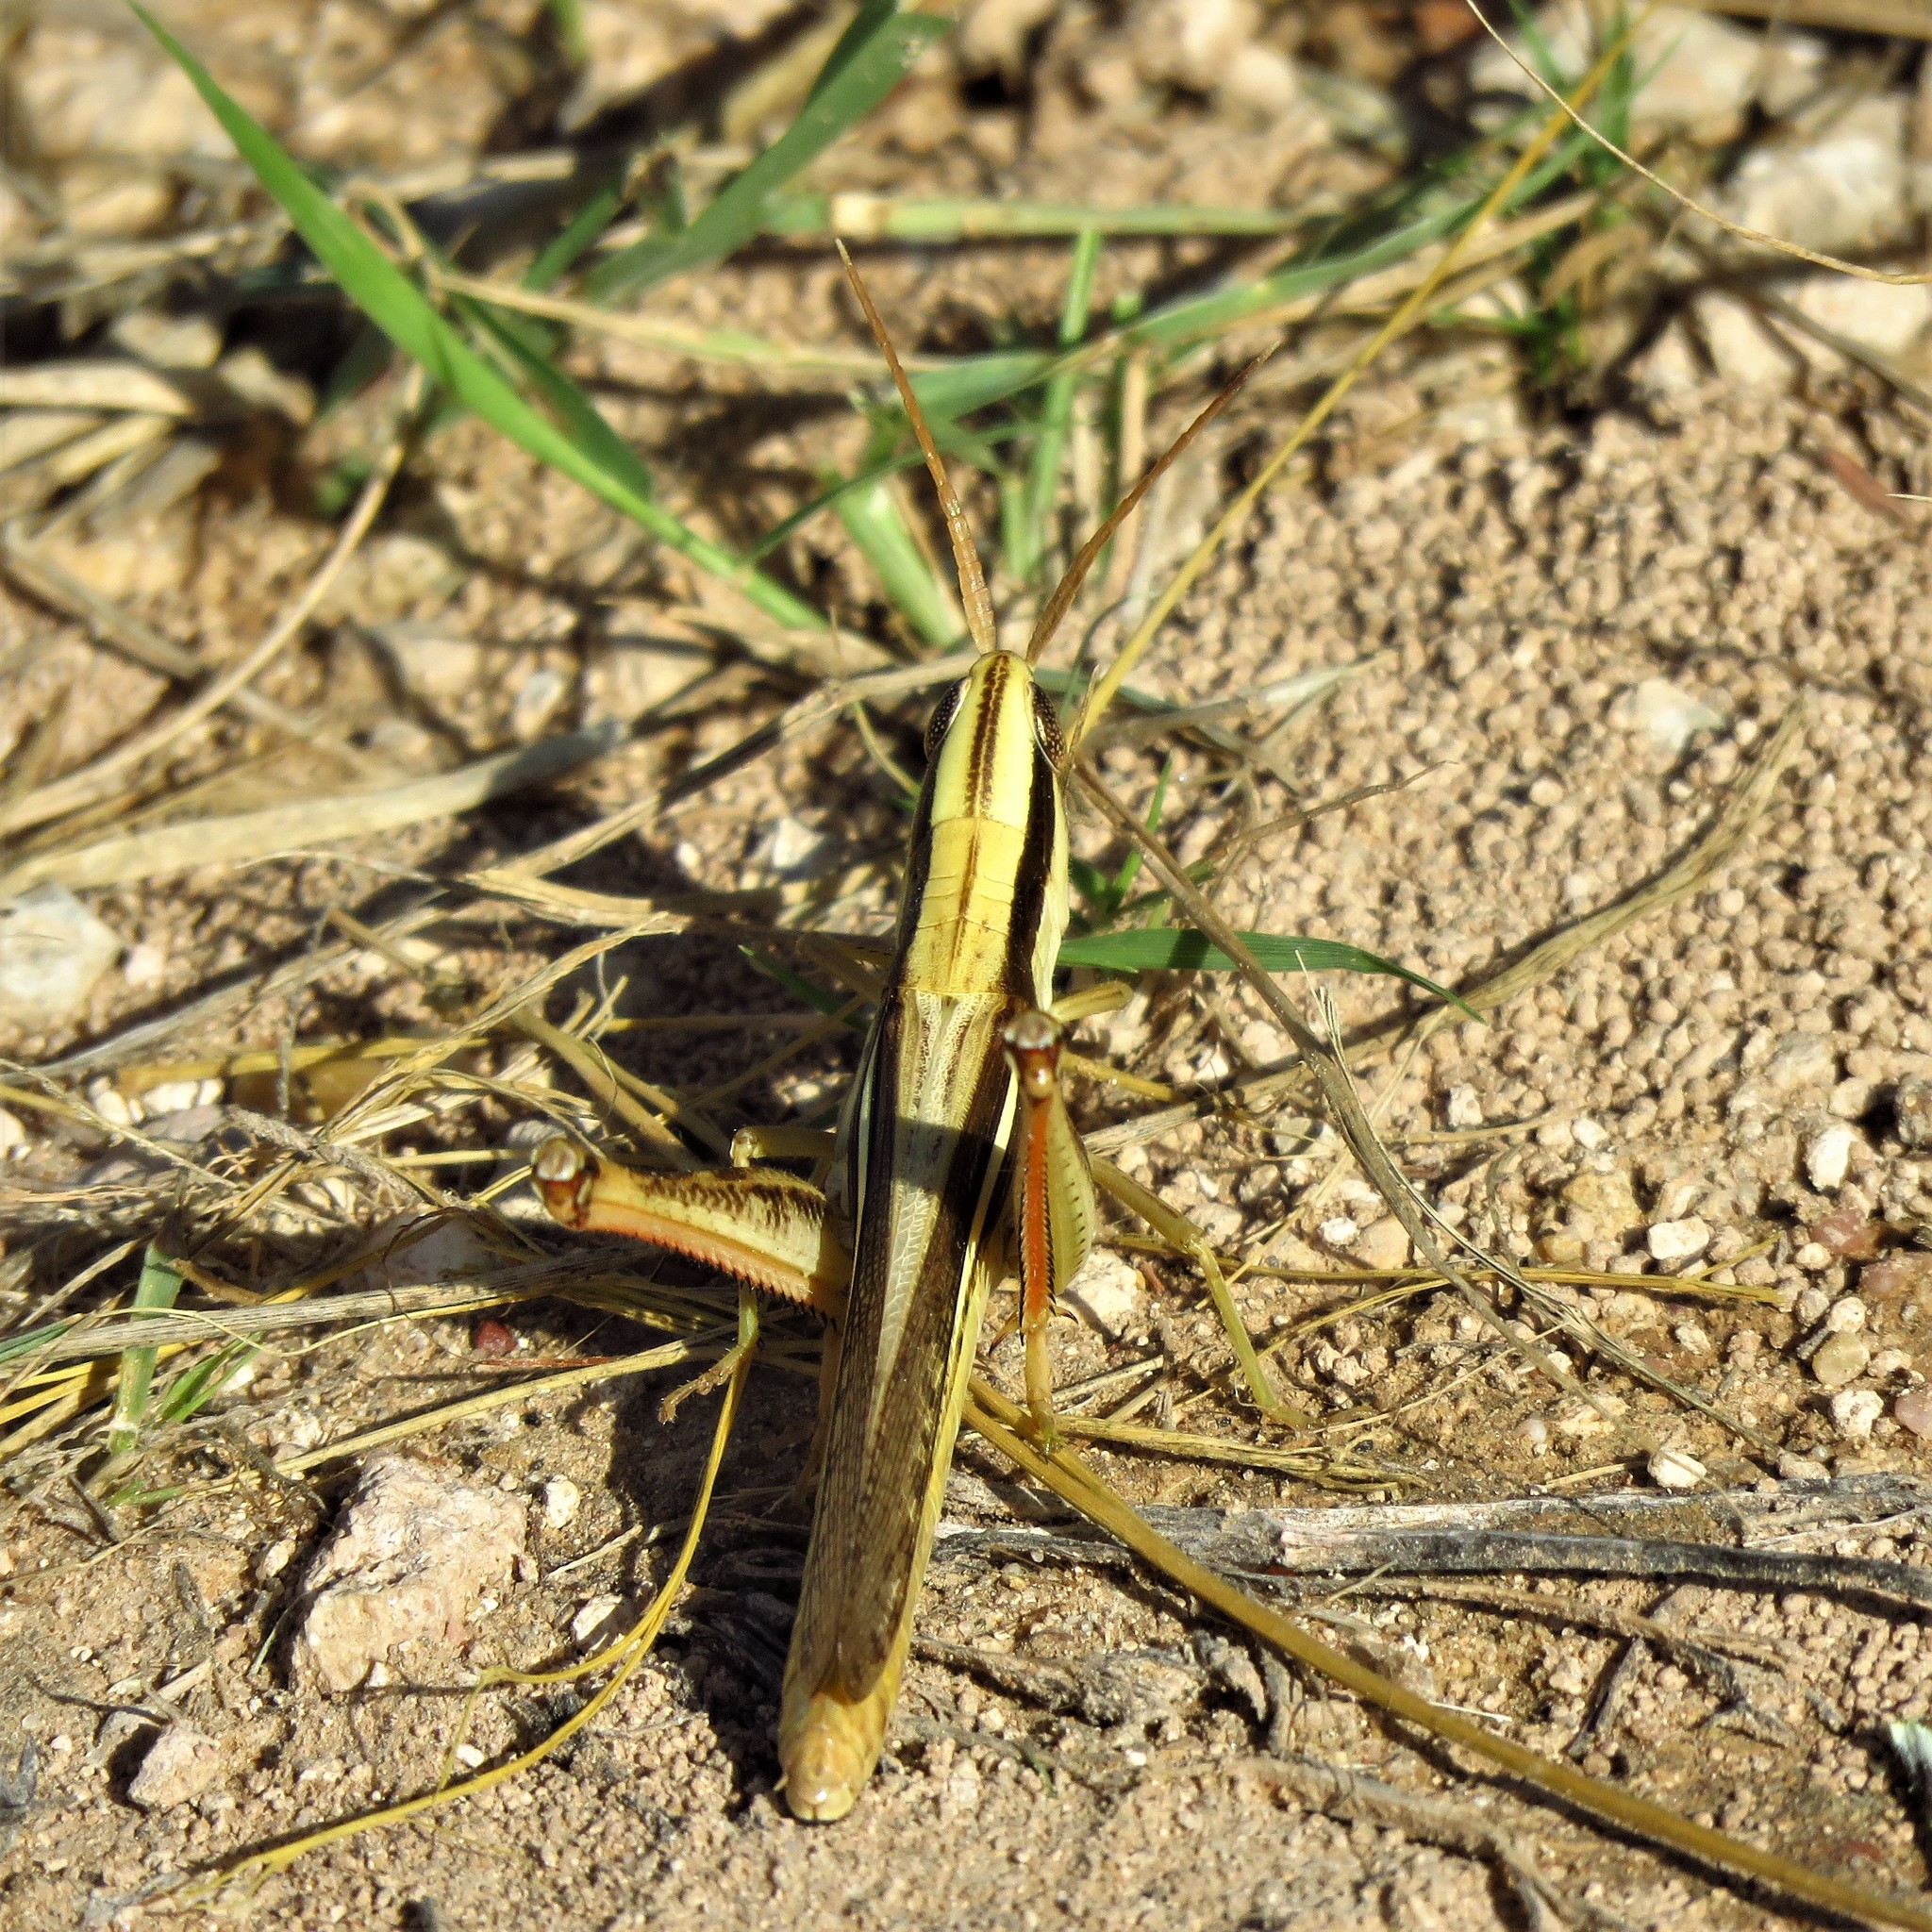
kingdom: Animalia
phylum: Arthropoda
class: Insecta
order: Orthoptera
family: Acrididae
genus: Mermiria
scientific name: Mermiria bivittata
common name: Two-striped mermiria grasshopper
